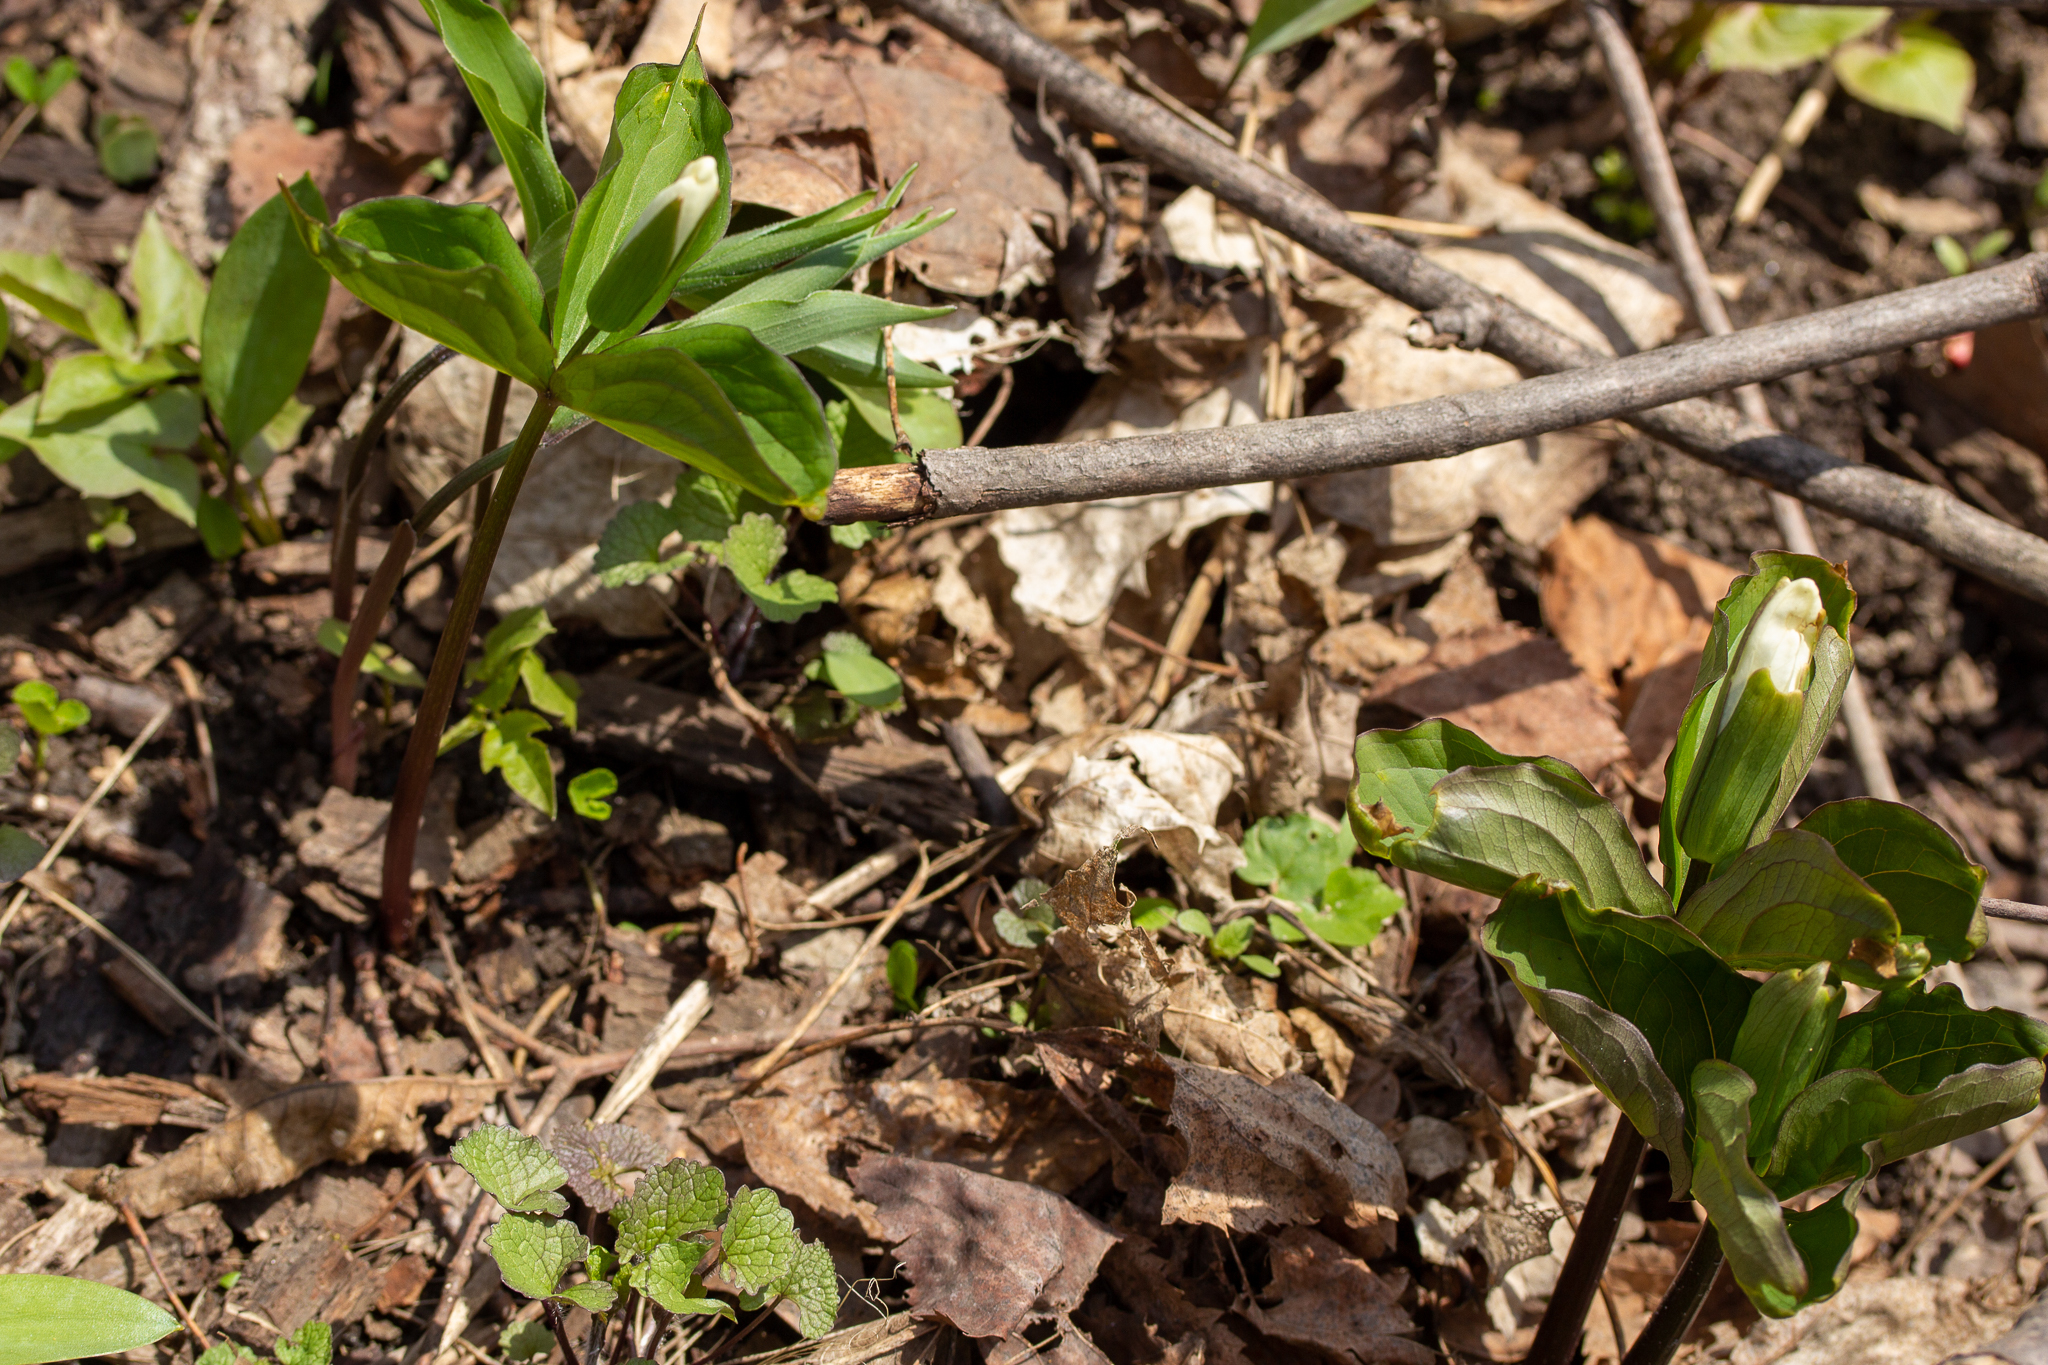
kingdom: Plantae
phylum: Tracheophyta
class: Liliopsida
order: Liliales
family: Melanthiaceae
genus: Trillium
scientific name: Trillium grandiflorum
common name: Great white trillium
